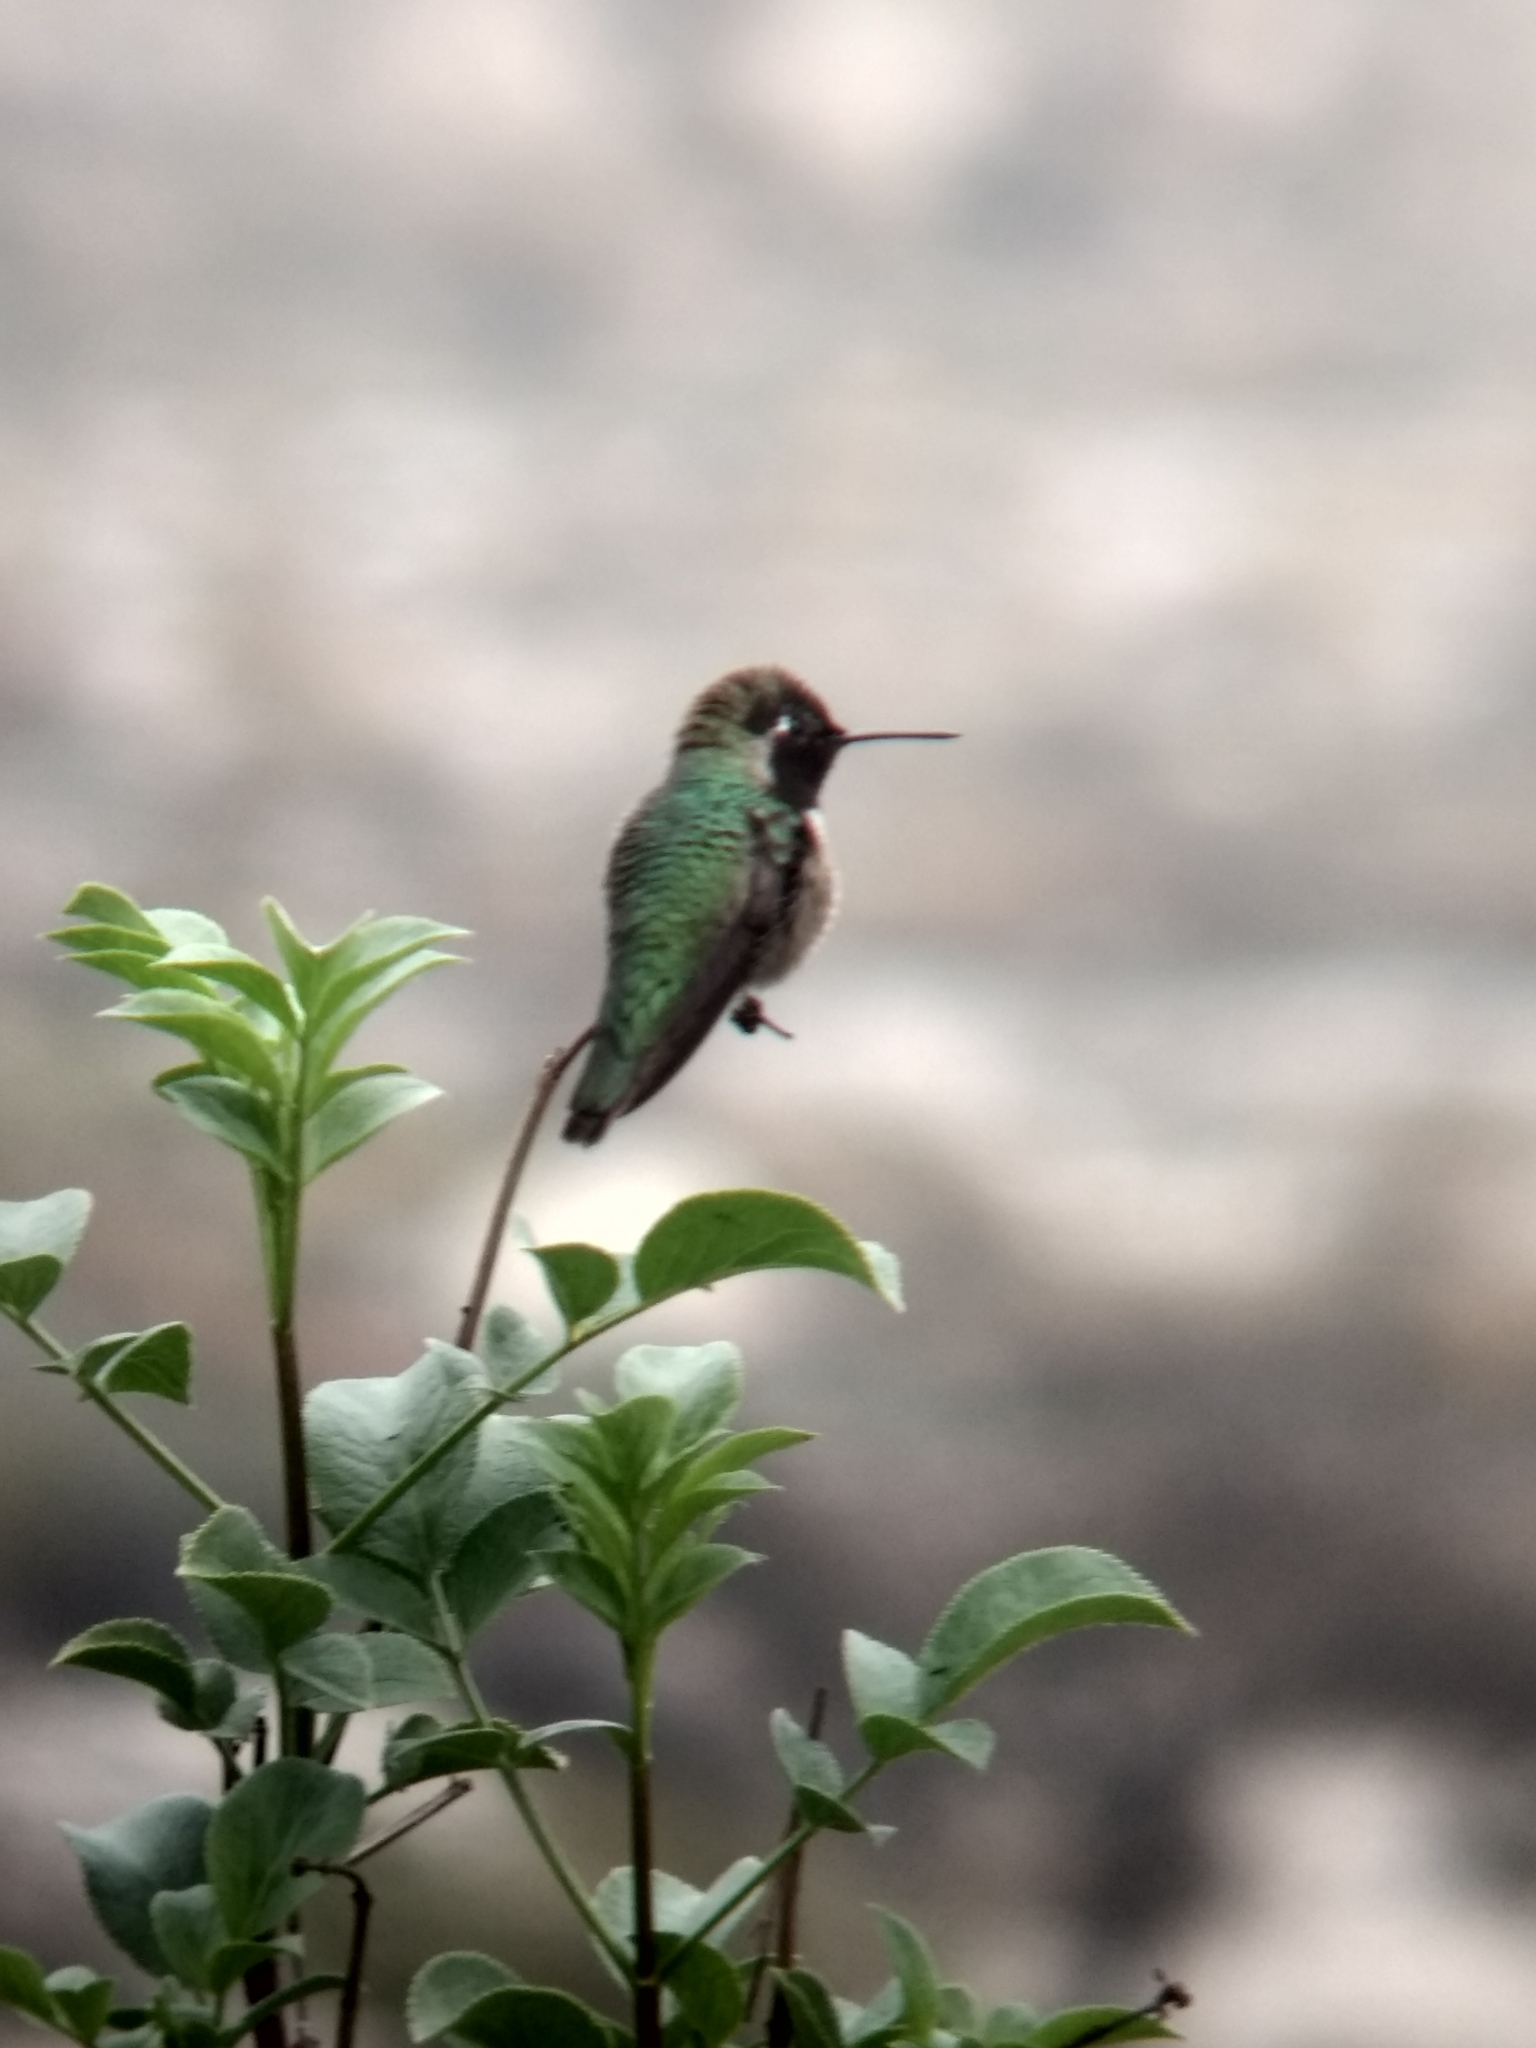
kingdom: Animalia
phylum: Chordata
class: Aves
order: Apodiformes
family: Trochilidae
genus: Calypte
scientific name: Calypte anna
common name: Anna's hummingbird
